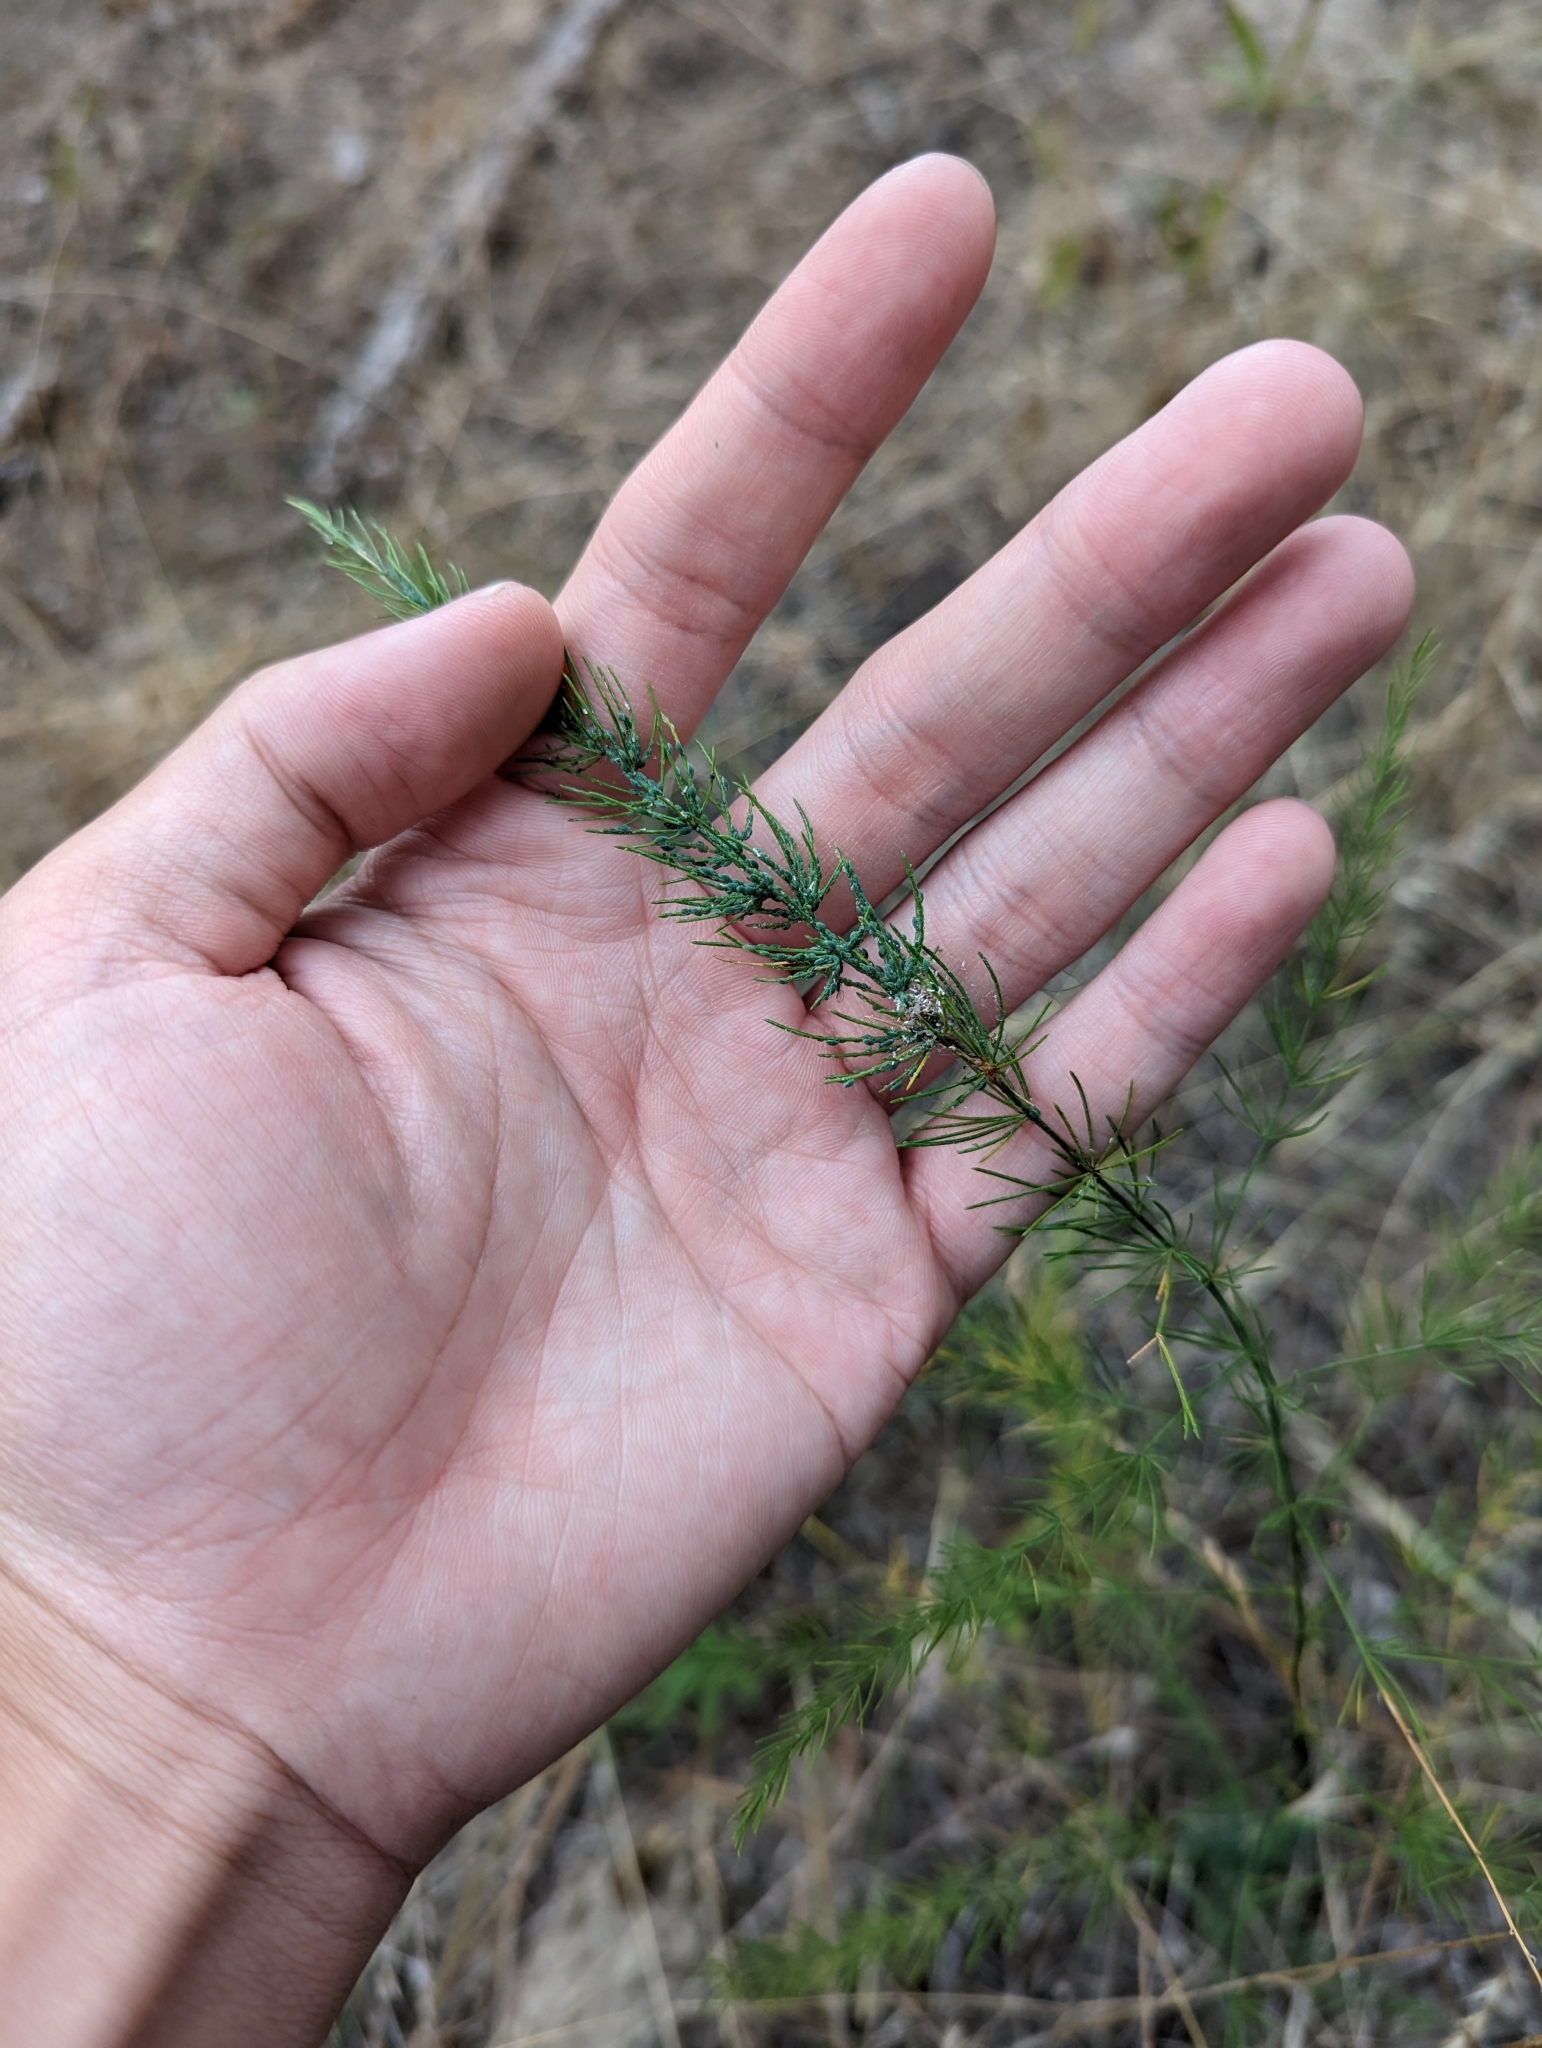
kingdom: Plantae
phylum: Tracheophyta
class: Liliopsida
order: Asparagales
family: Asparagaceae
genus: Asparagus
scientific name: Asparagus officinalis
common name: Garden asparagus
